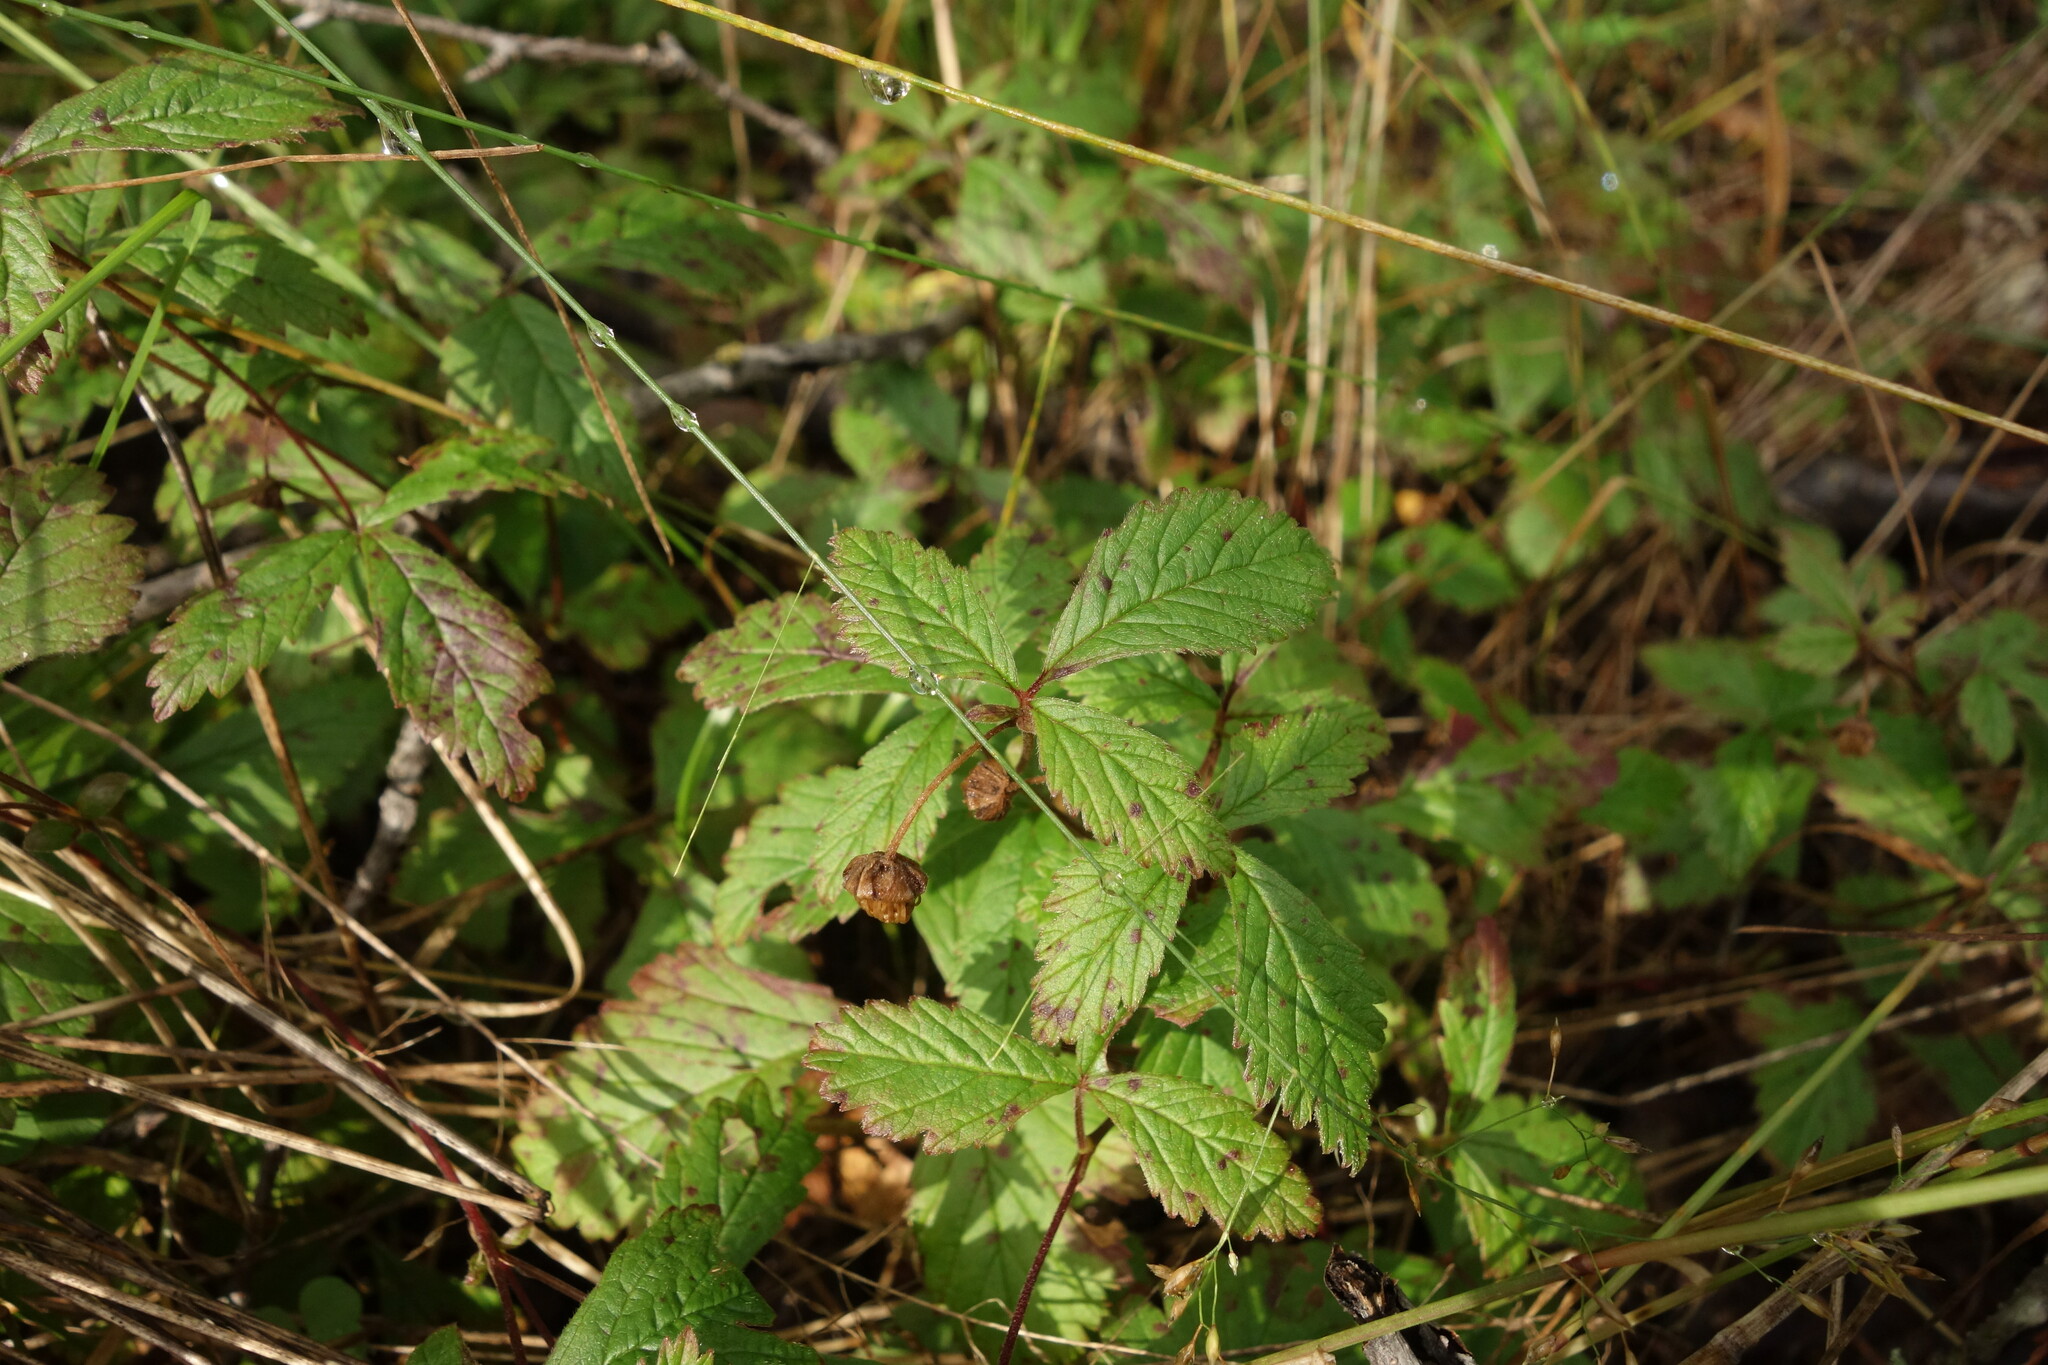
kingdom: Plantae
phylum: Tracheophyta
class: Magnoliopsida
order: Rosales
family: Rosaceae
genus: Rubus
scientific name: Rubus arcticus
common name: Arctic bramble
